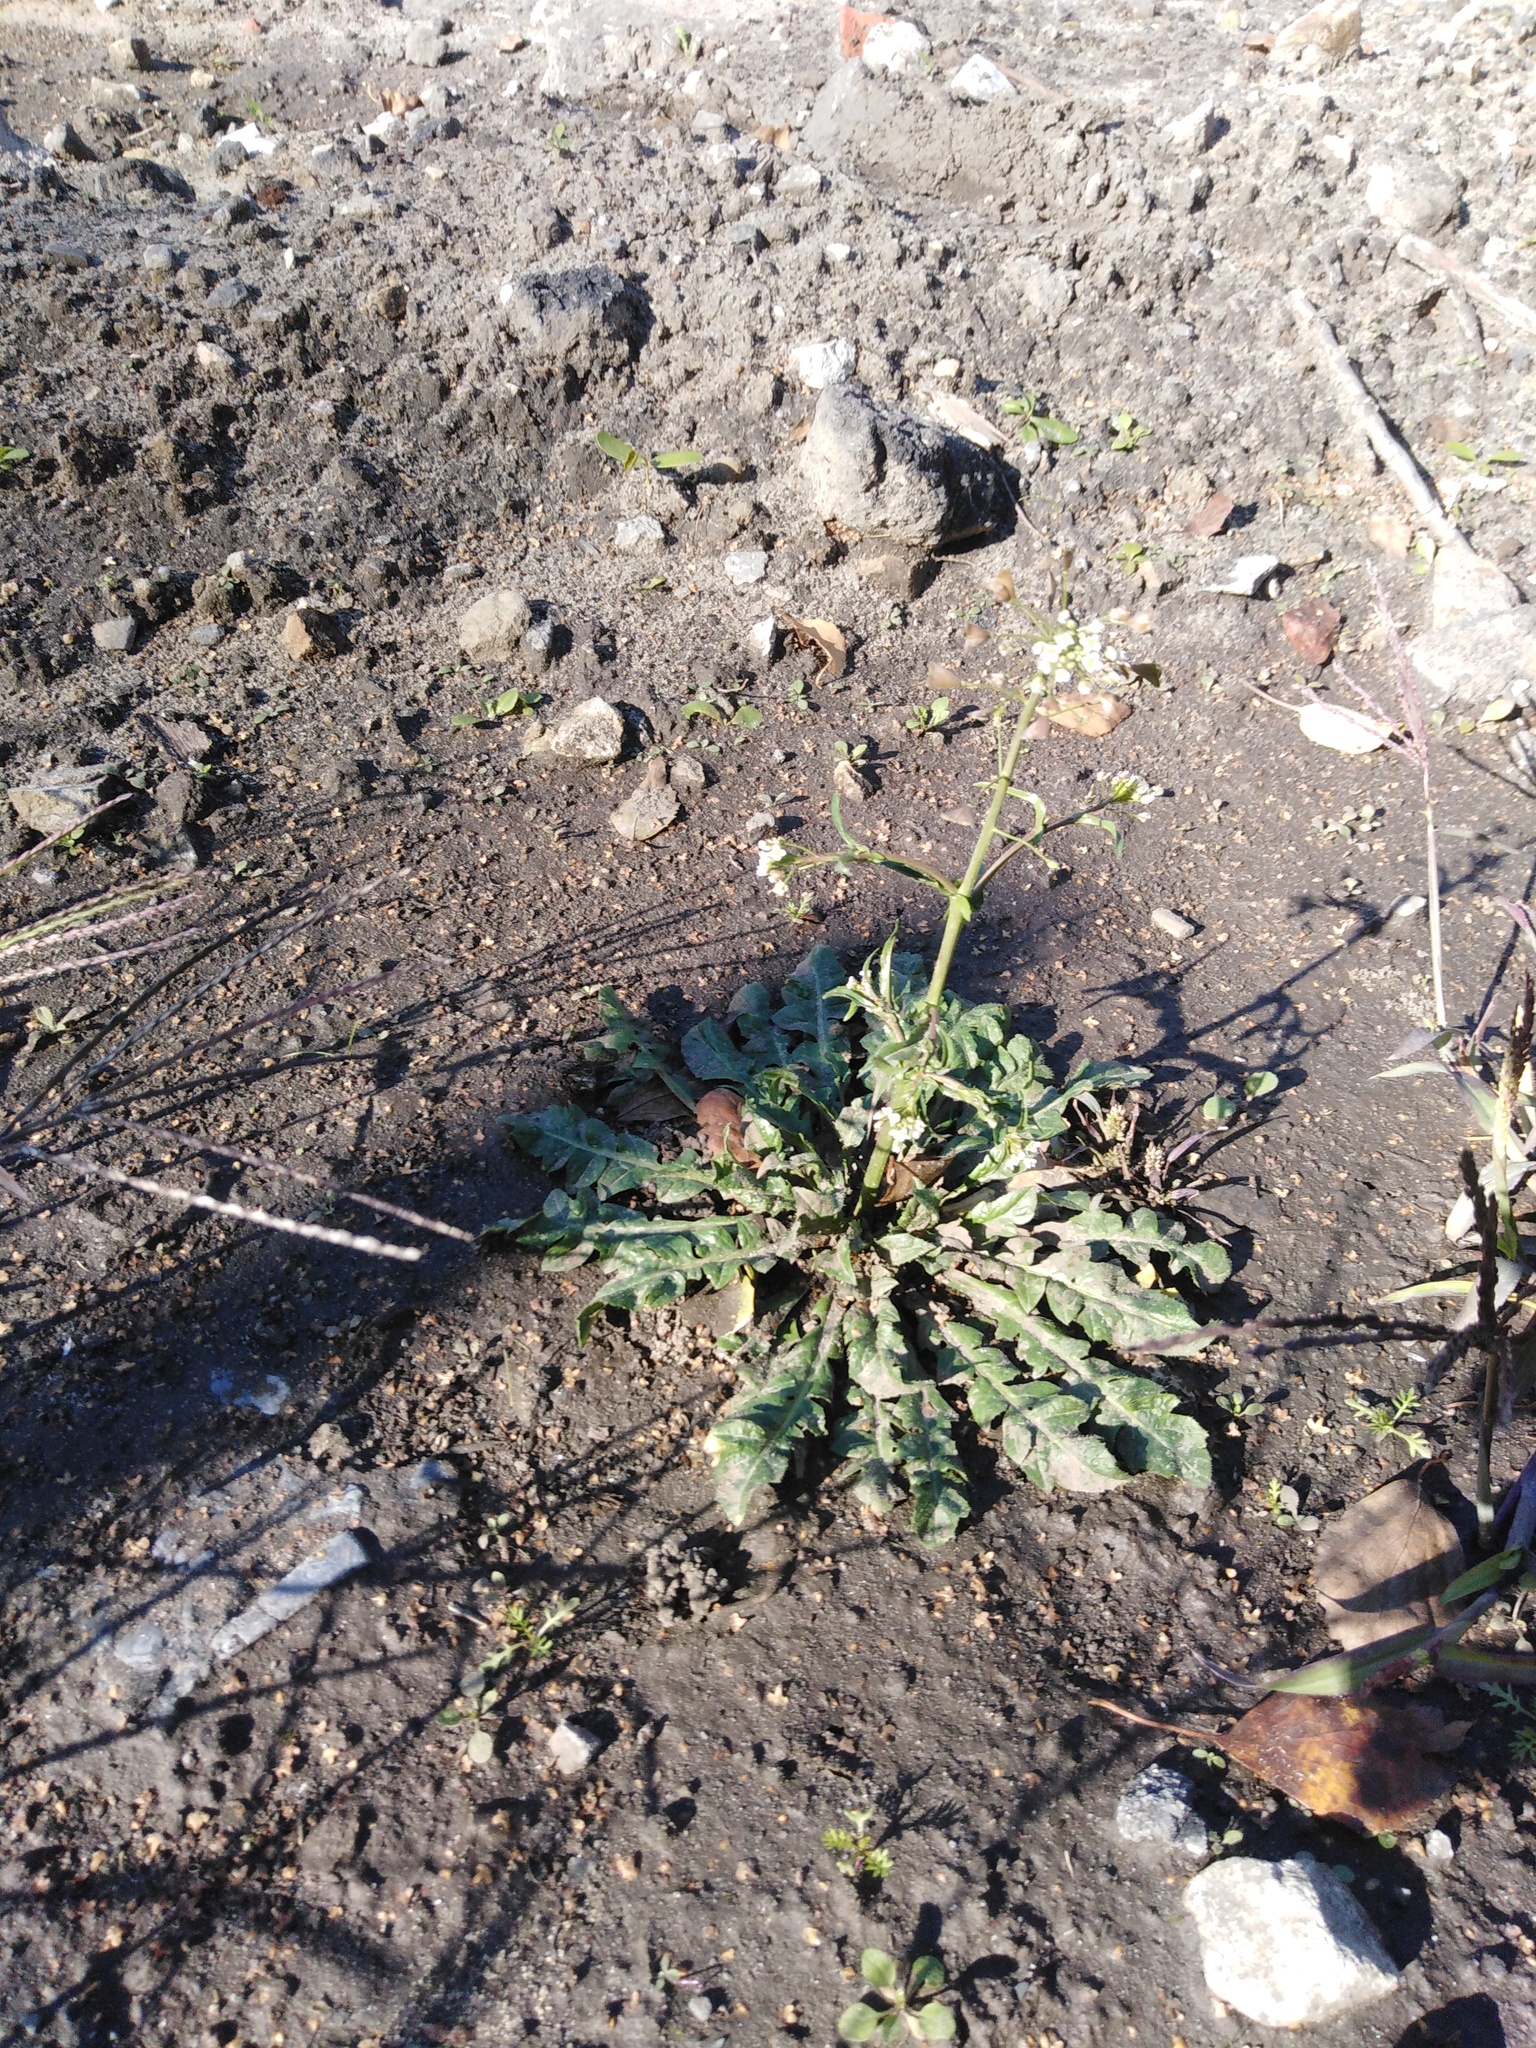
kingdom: Plantae
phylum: Tracheophyta
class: Magnoliopsida
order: Brassicales
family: Brassicaceae
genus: Capsella
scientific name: Capsella bursa-pastoris
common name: Shepherd's purse
